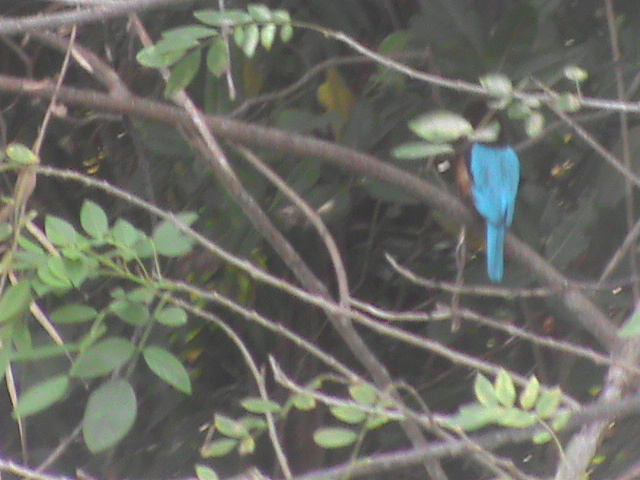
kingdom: Animalia
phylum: Chordata
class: Aves
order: Coraciiformes
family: Alcedinidae
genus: Halcyon
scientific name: Halcyon smyrnensis
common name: White-throated kingfisher
